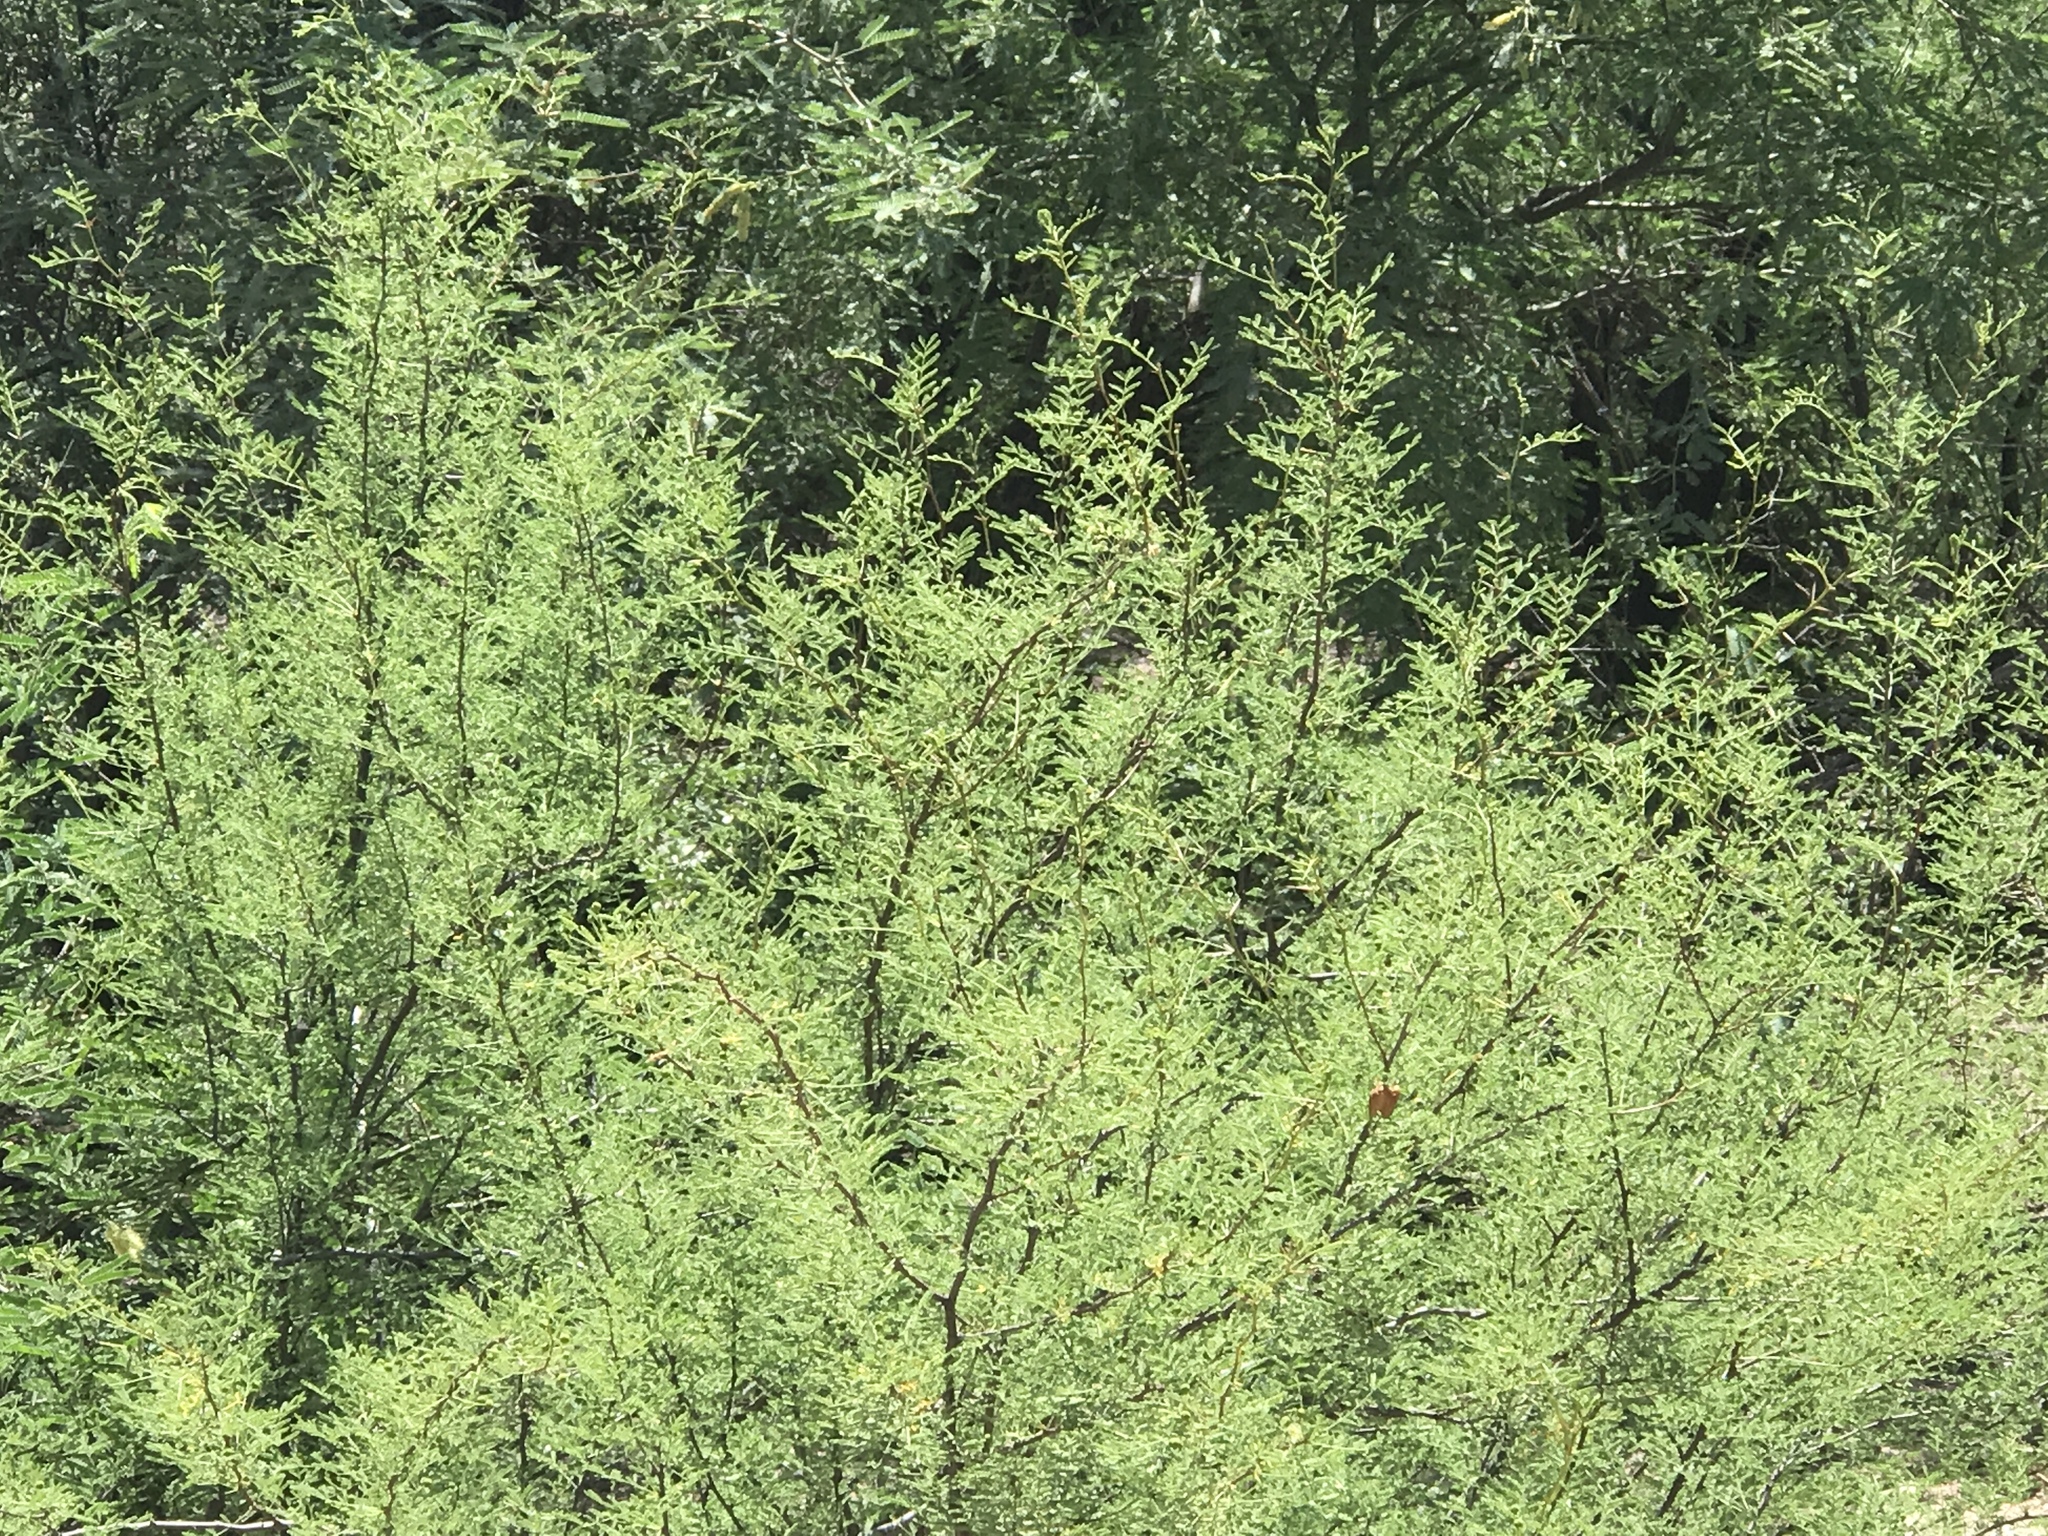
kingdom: Plantae
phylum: Tracheophyta
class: Magnoliopsida
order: Fabales
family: Fabaceae
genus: Vachellia
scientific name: Vachellia constricta
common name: Mescat acacia
